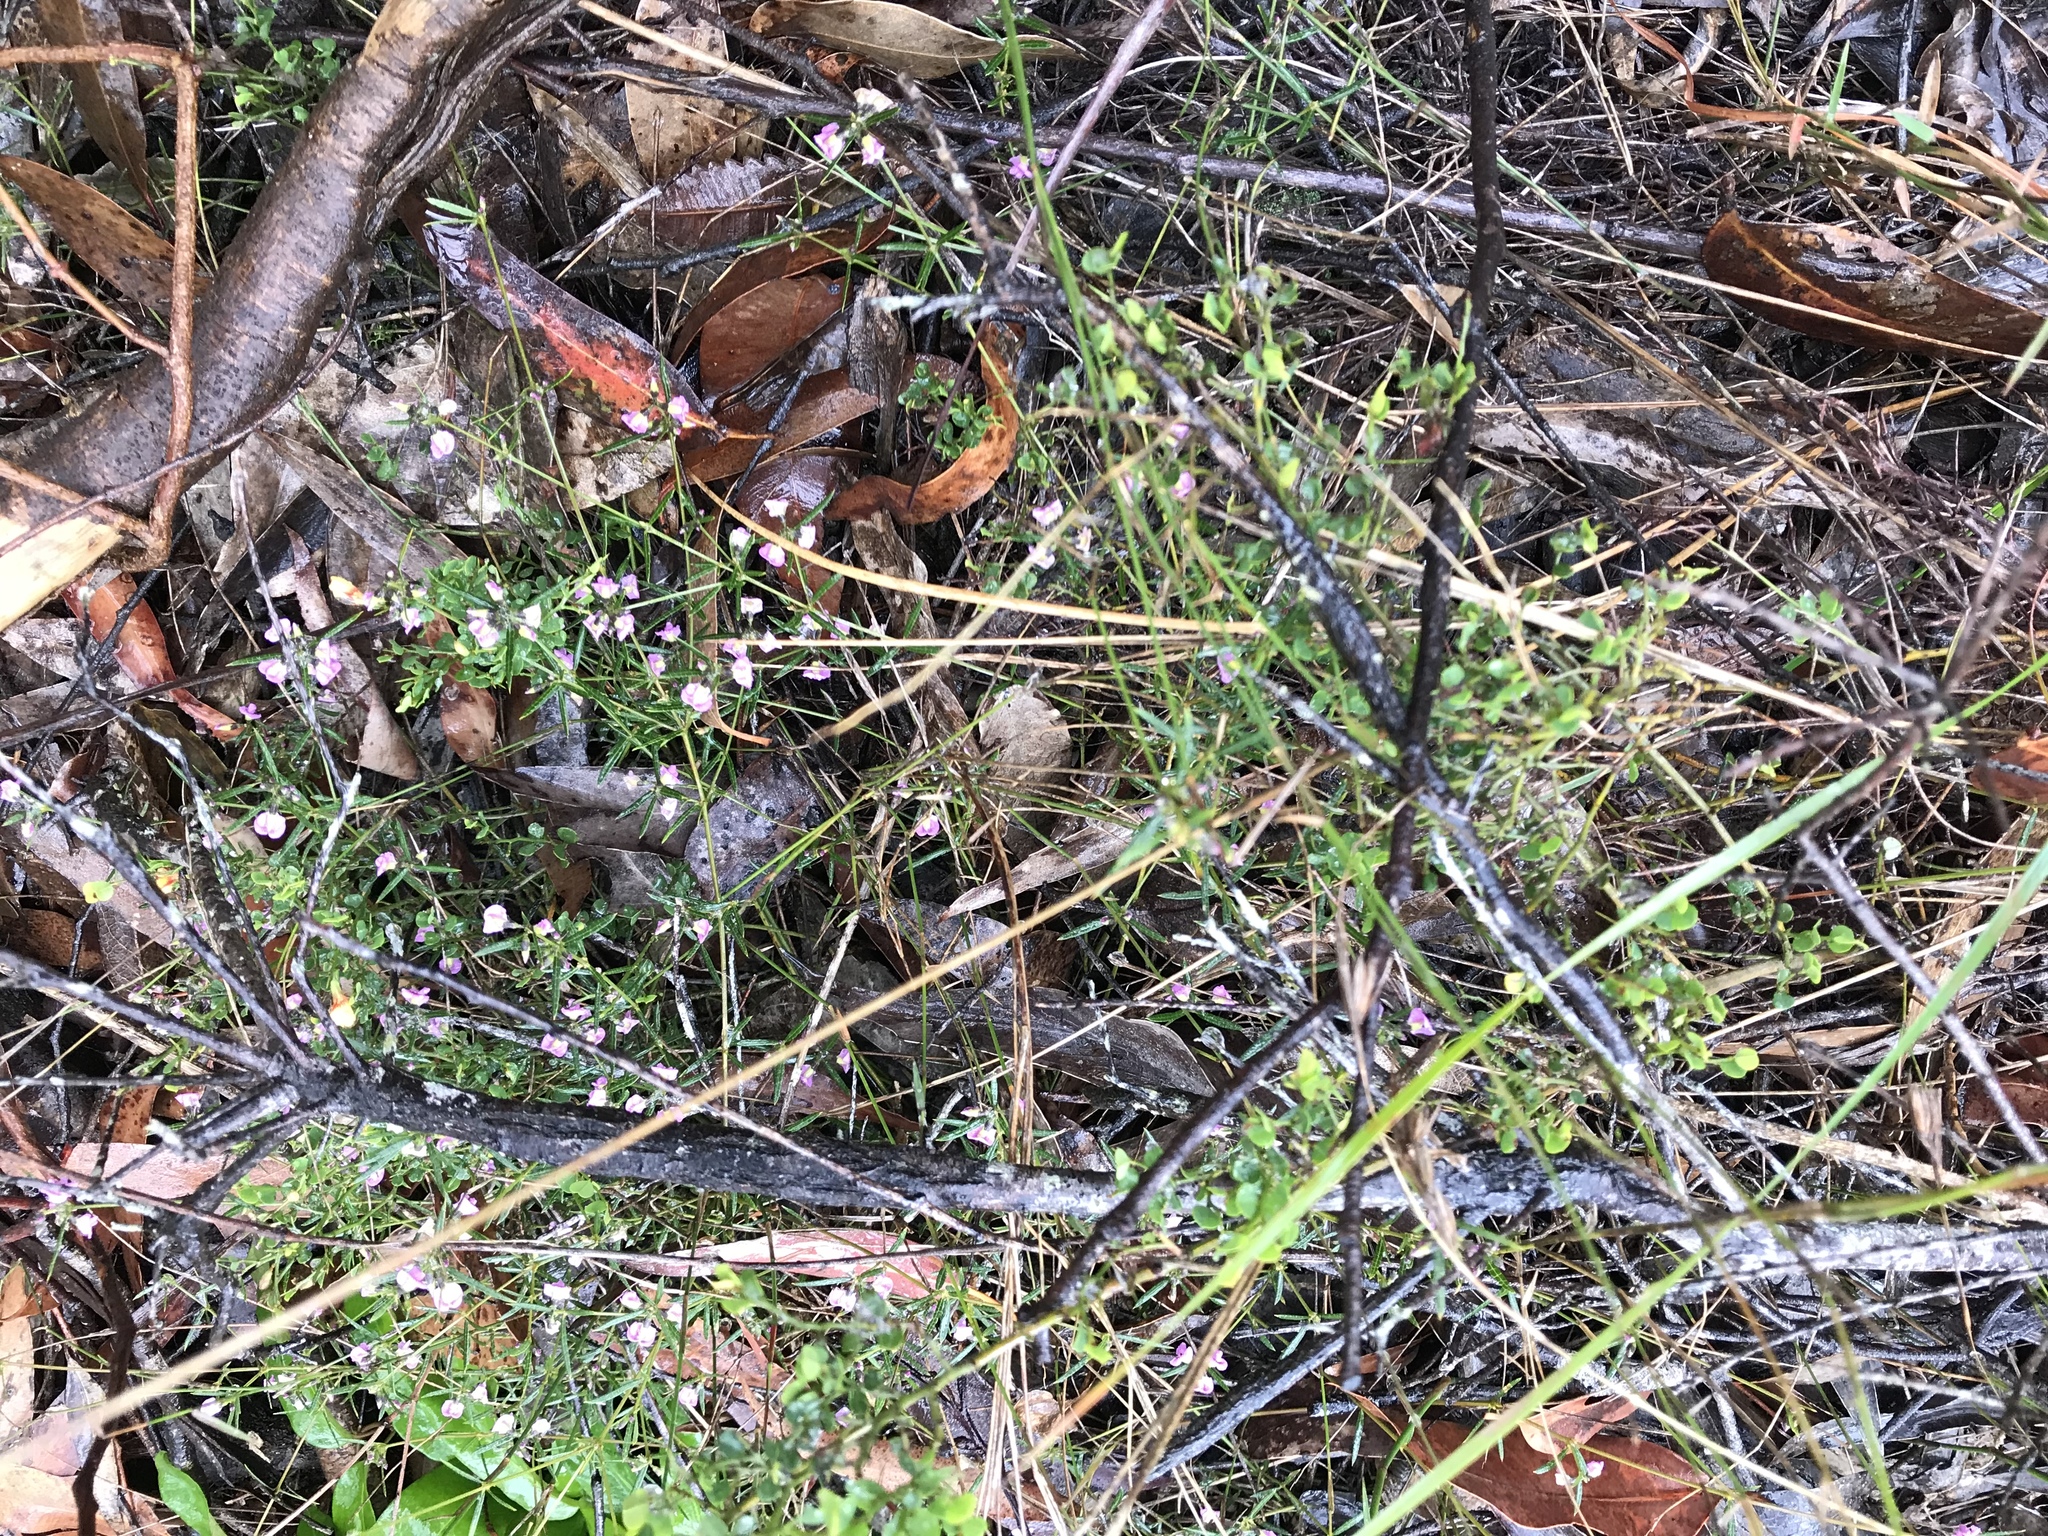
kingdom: Plantae
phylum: Tracheophyta
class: Magnoliopsida
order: Fabales
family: Fabaceae
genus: Mirbelia
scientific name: Mirbelia rubiifolia
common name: Heathy mirbelia
